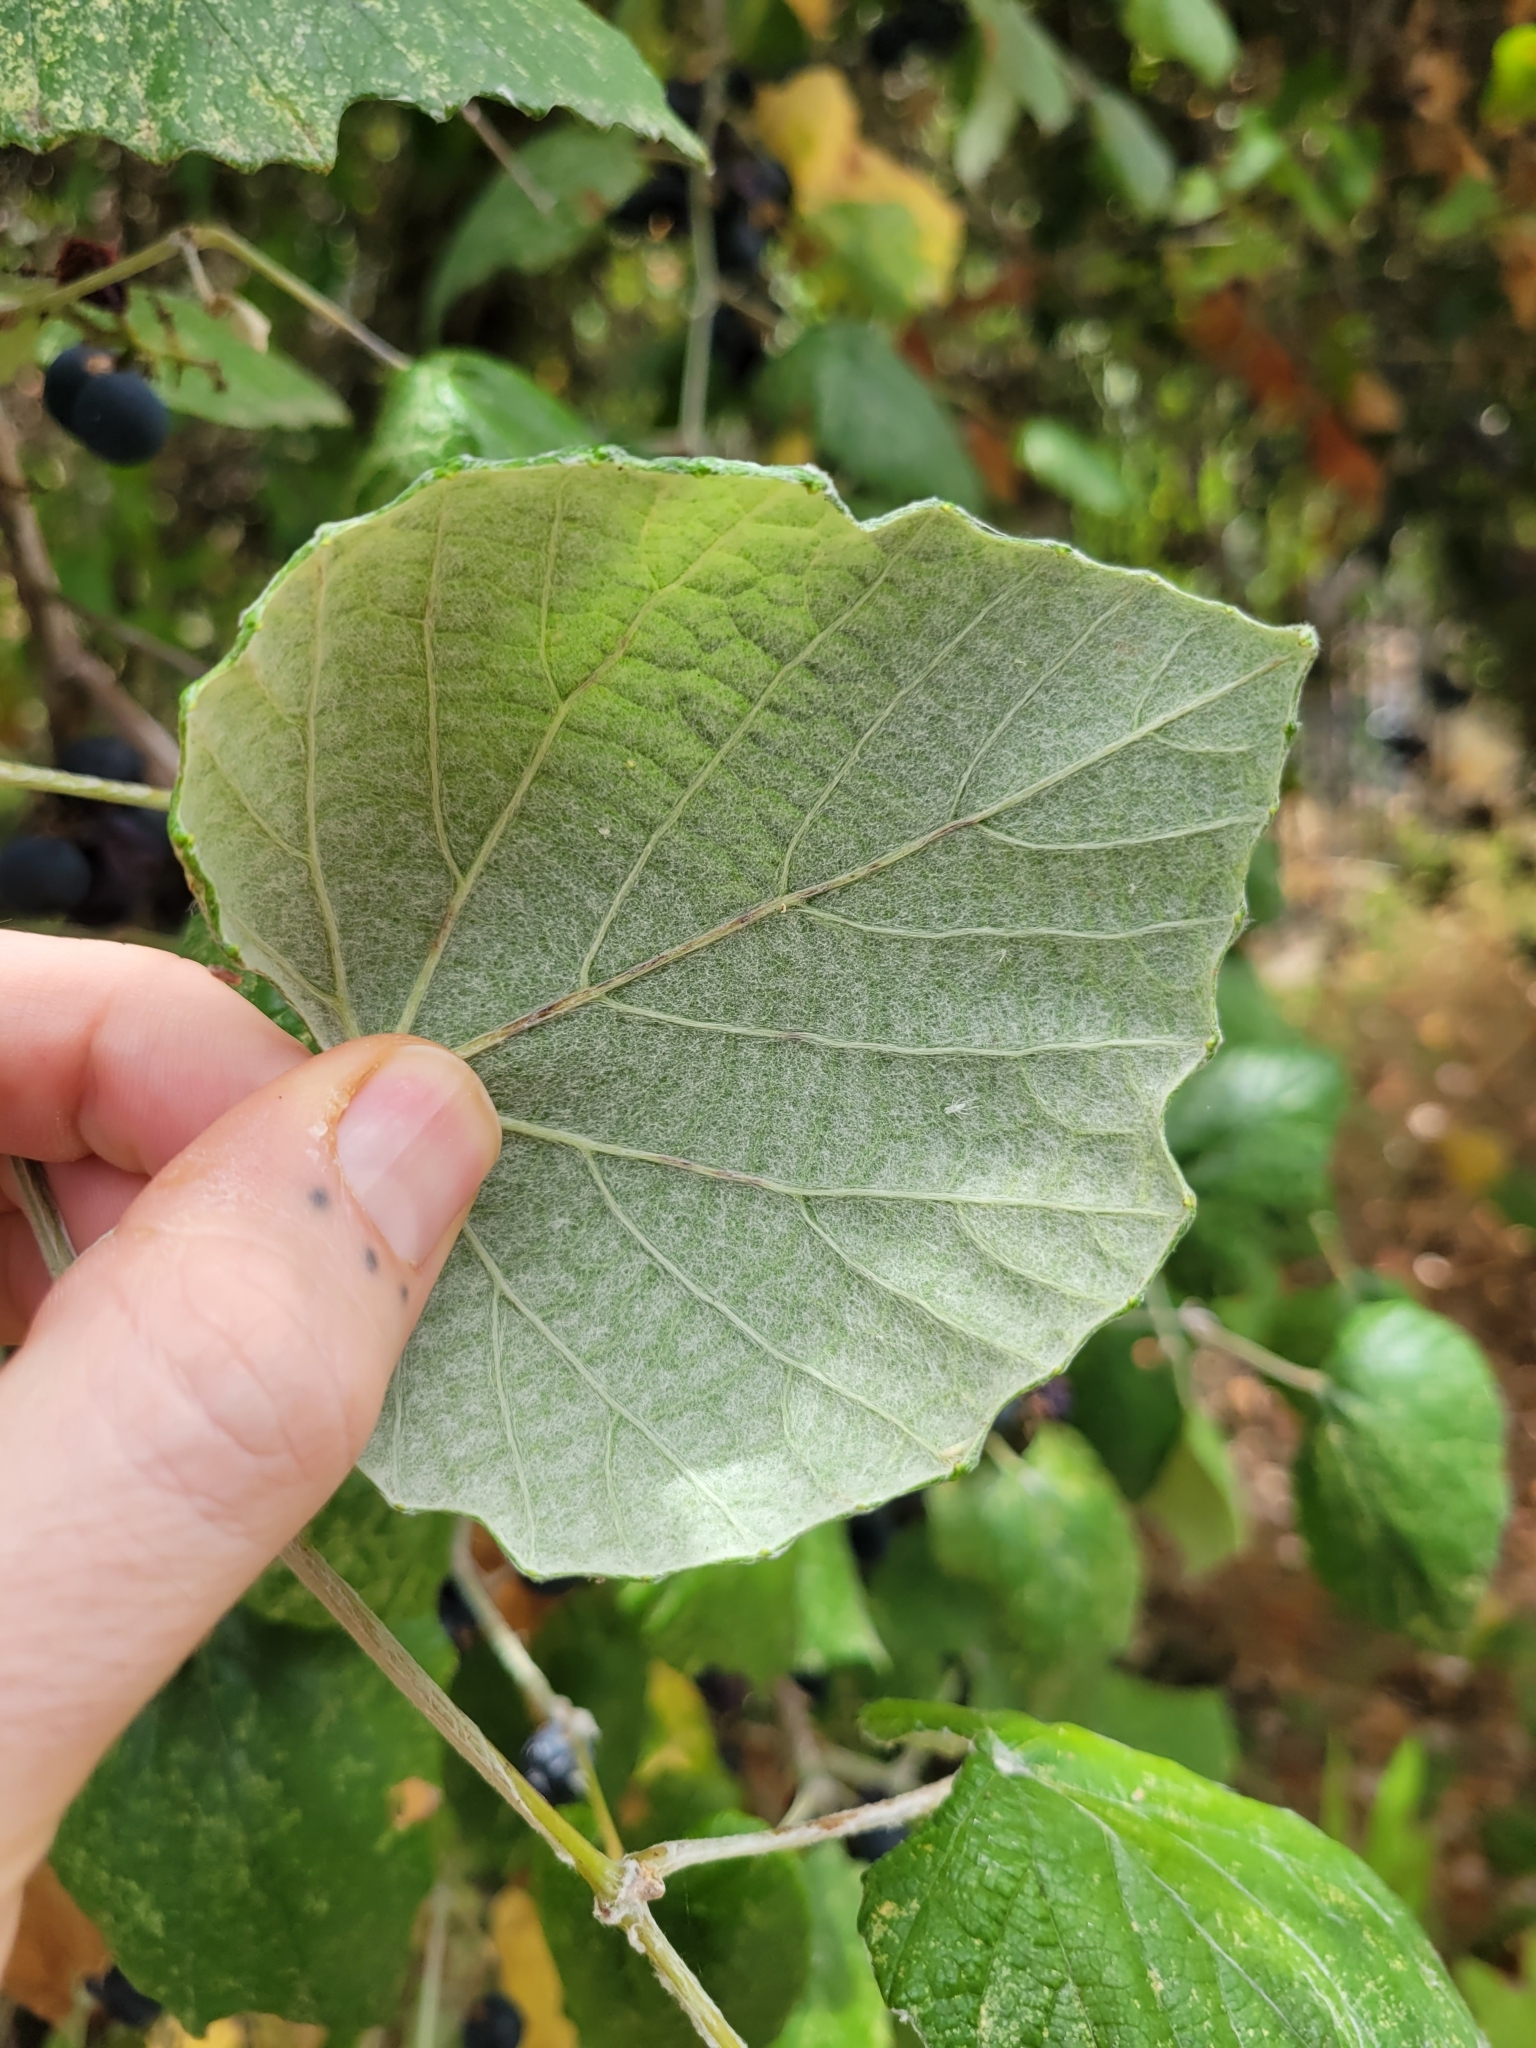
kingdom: Plantae
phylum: Tracheophyta
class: Magnoliopsida
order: Vitales
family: Vitaceae
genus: Vitis
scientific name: Vitis mustangensis
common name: Mustang grape
